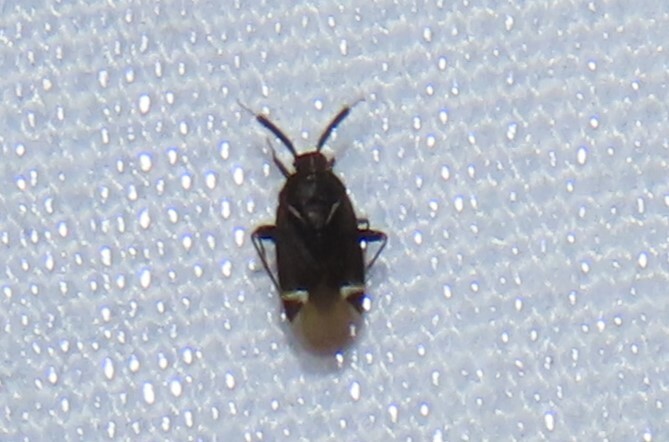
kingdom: Animalia
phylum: Arthropoda
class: Insecta
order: Hemiptera
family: Miridae
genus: Myiomma
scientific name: Myiomma cixiiforme
